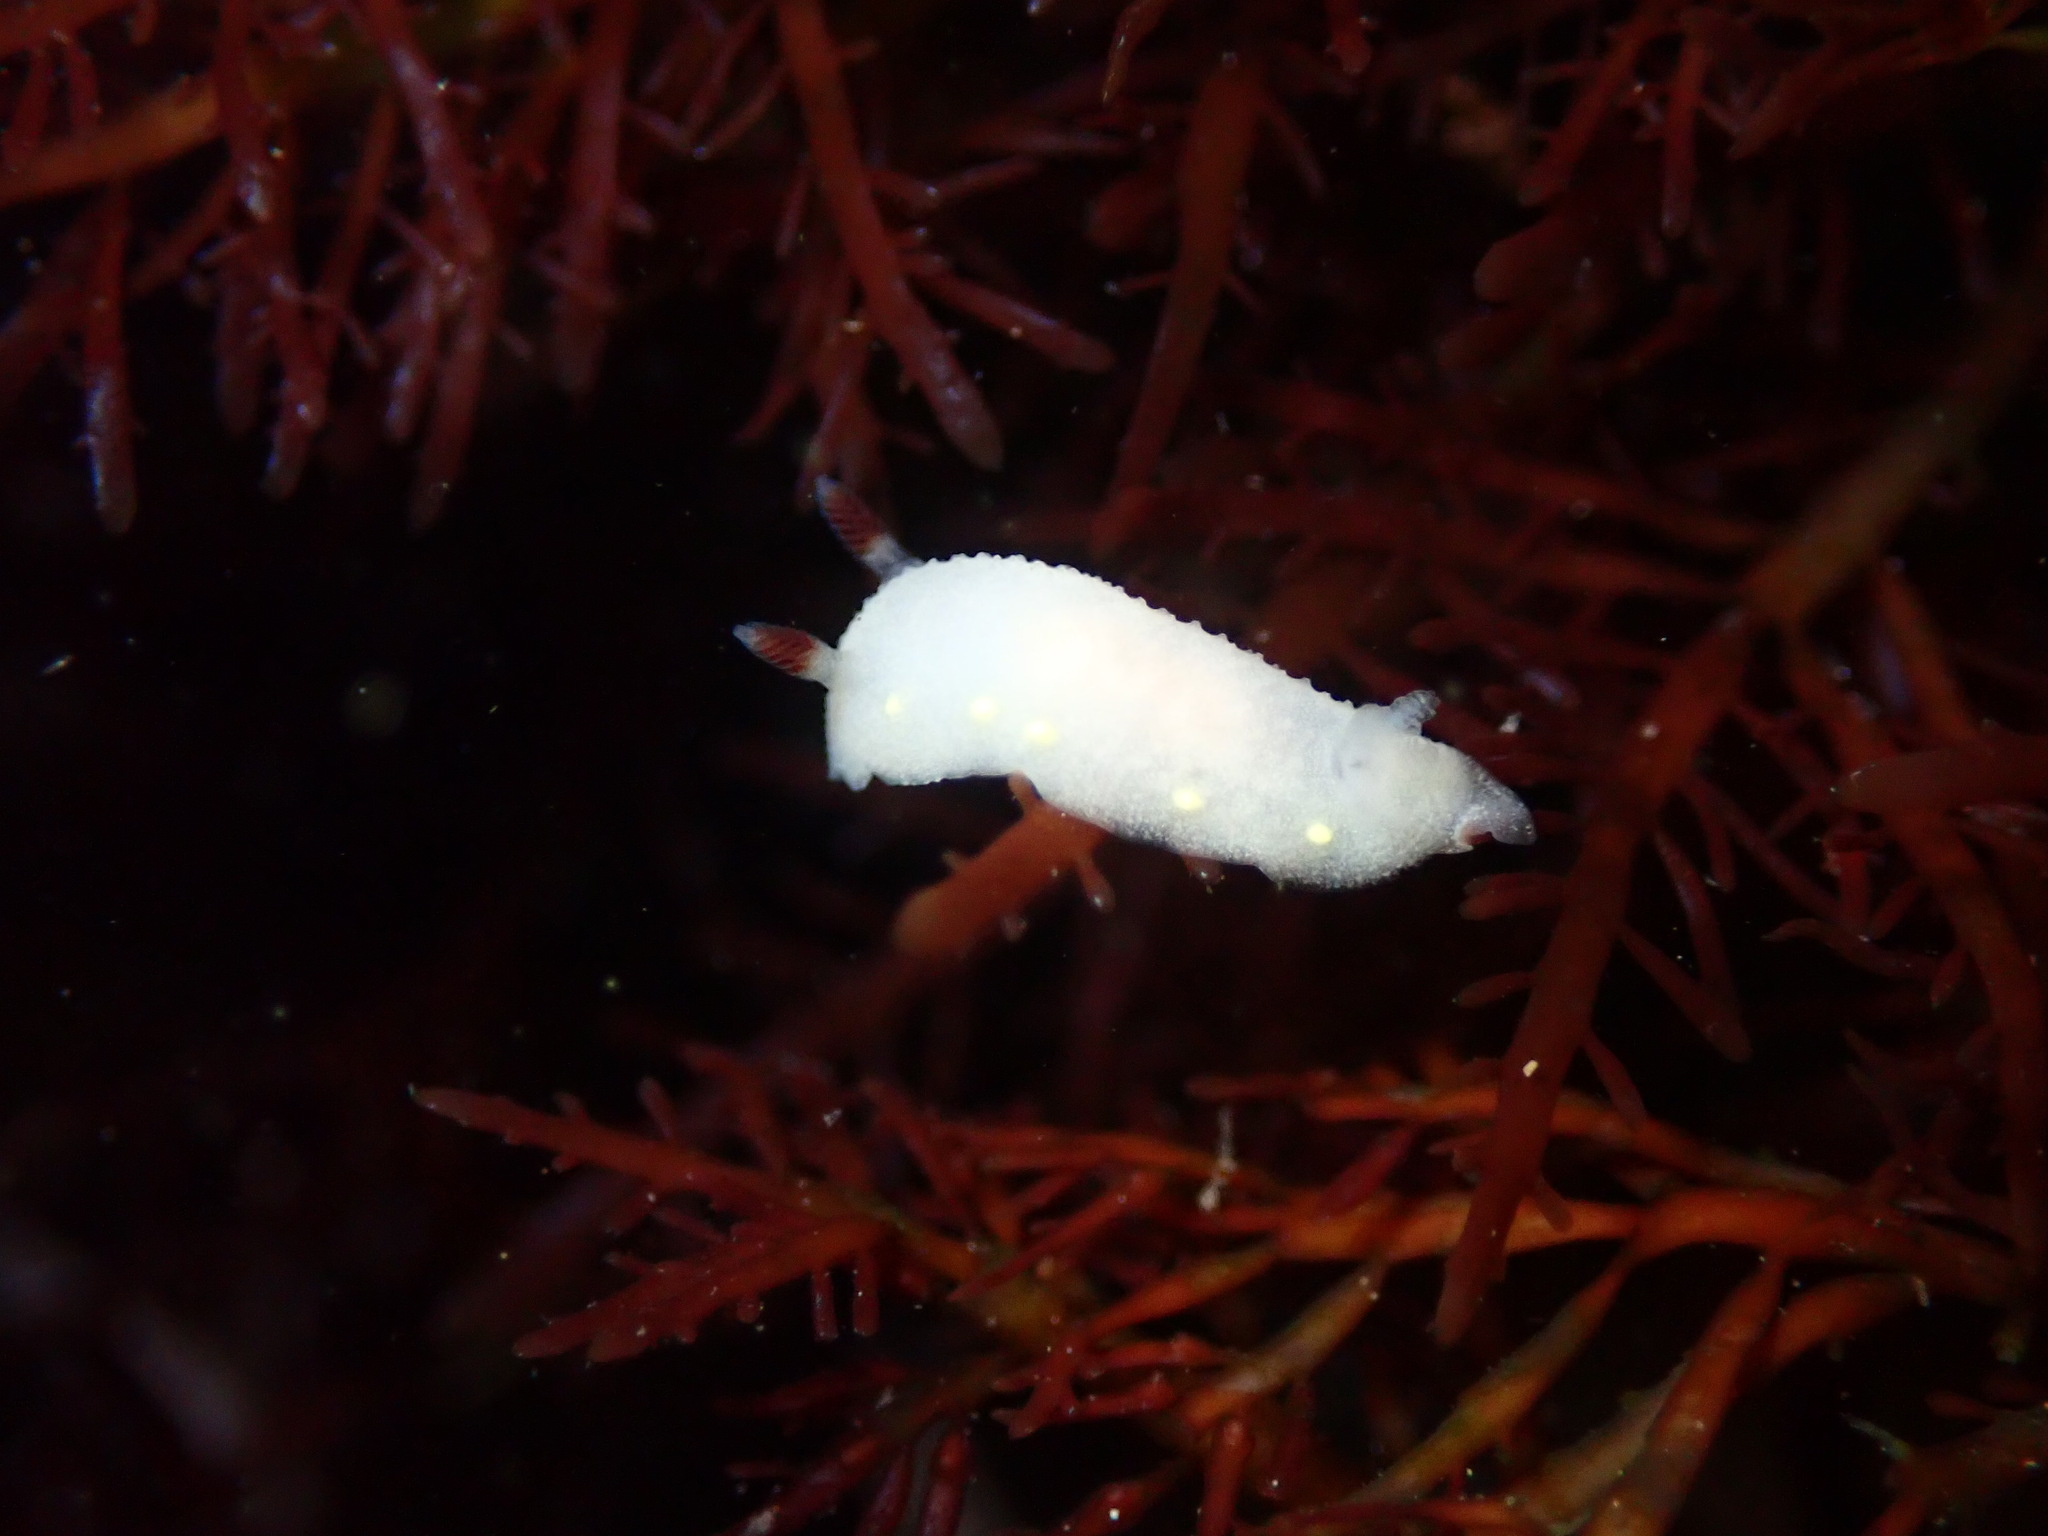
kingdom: Animalia
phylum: Mollusca
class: Gastropoda
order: Nudibranchia
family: Cadlinidae
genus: Cadlina
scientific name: Cadlina flavomaculata
